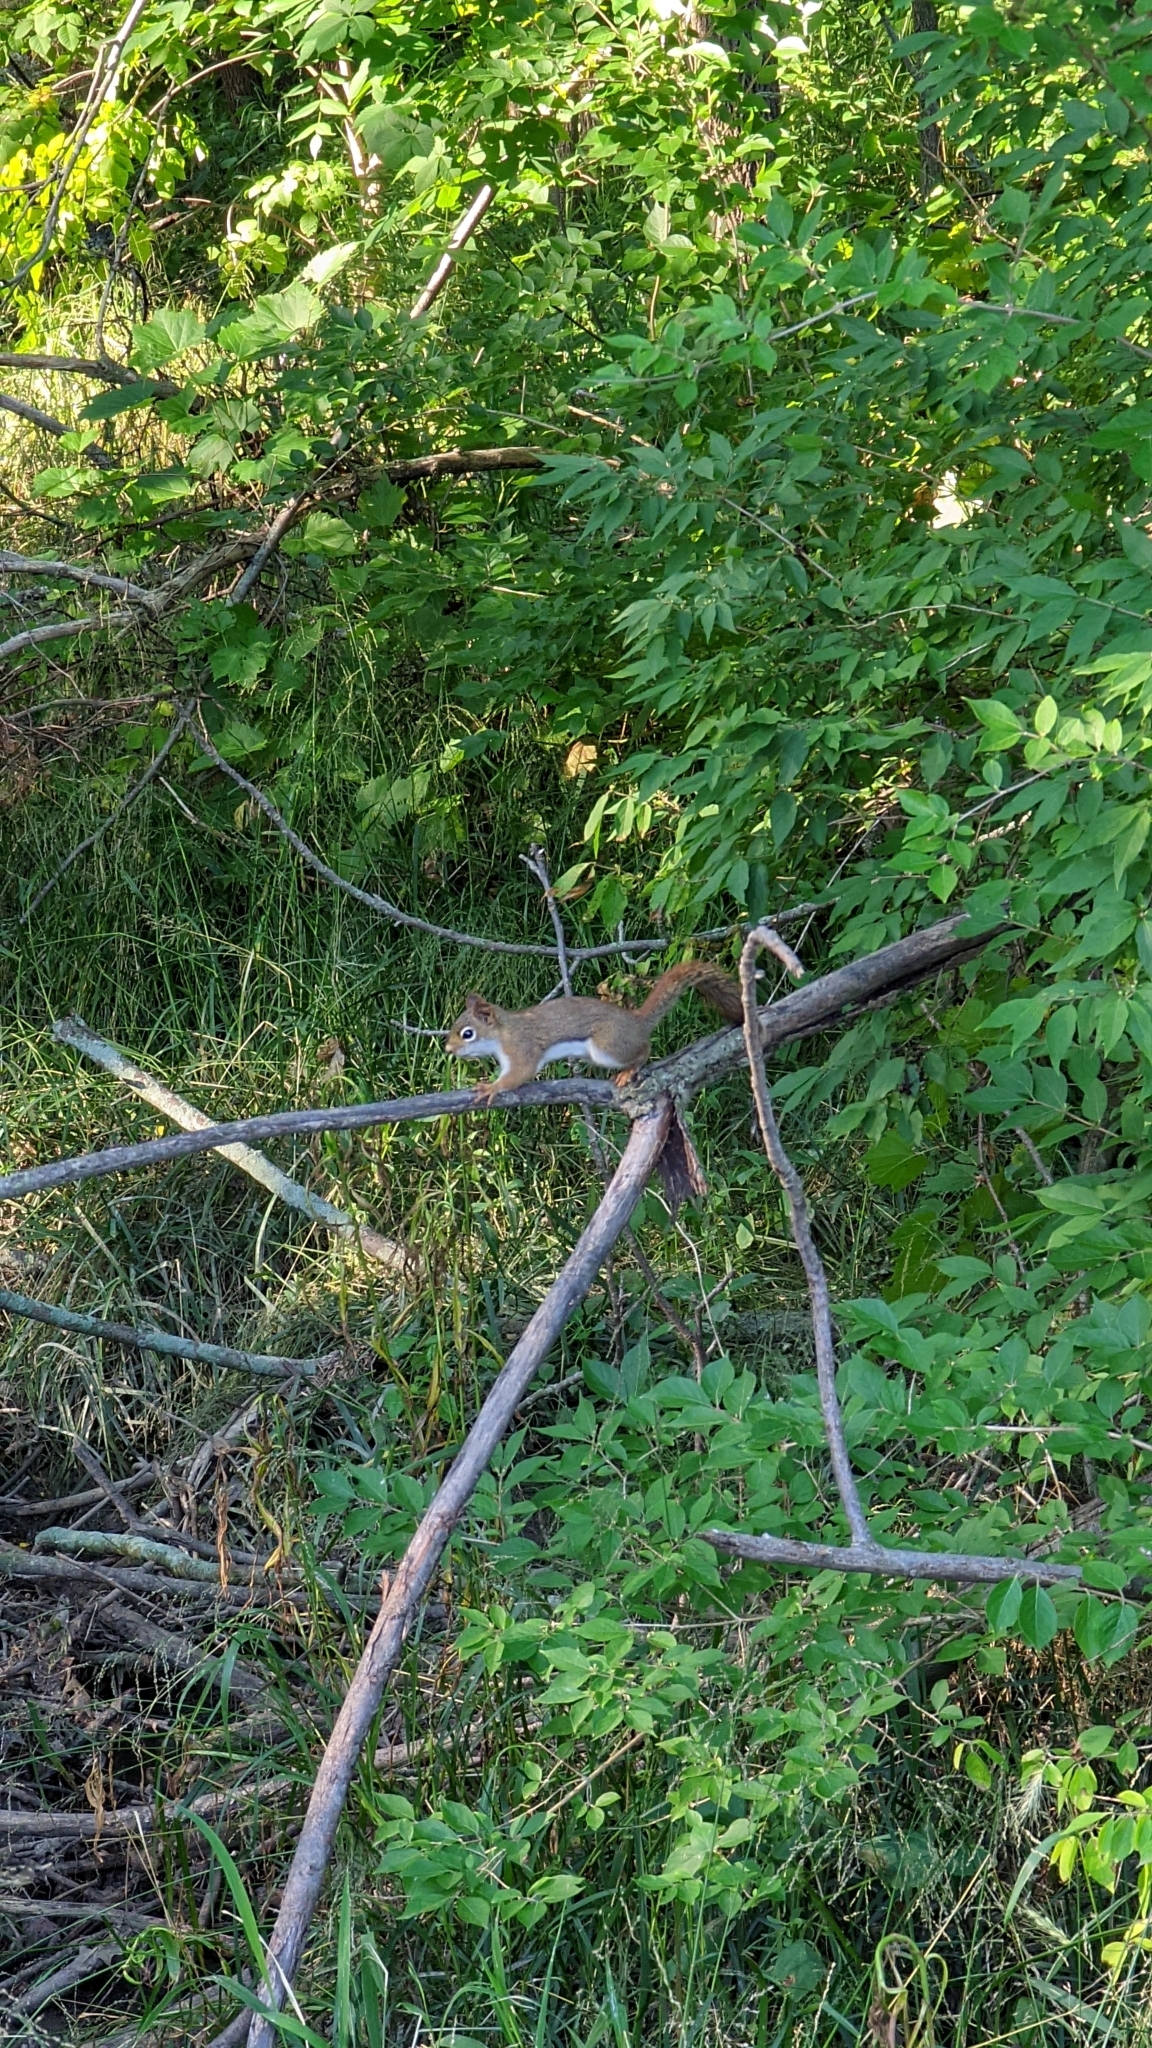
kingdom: Animalia
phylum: Chordata
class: Mammalia
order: Rodentia
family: Sciuridae
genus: Tamiasciurus
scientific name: Tamiasciurus hudsonicus
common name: Red squirrel
